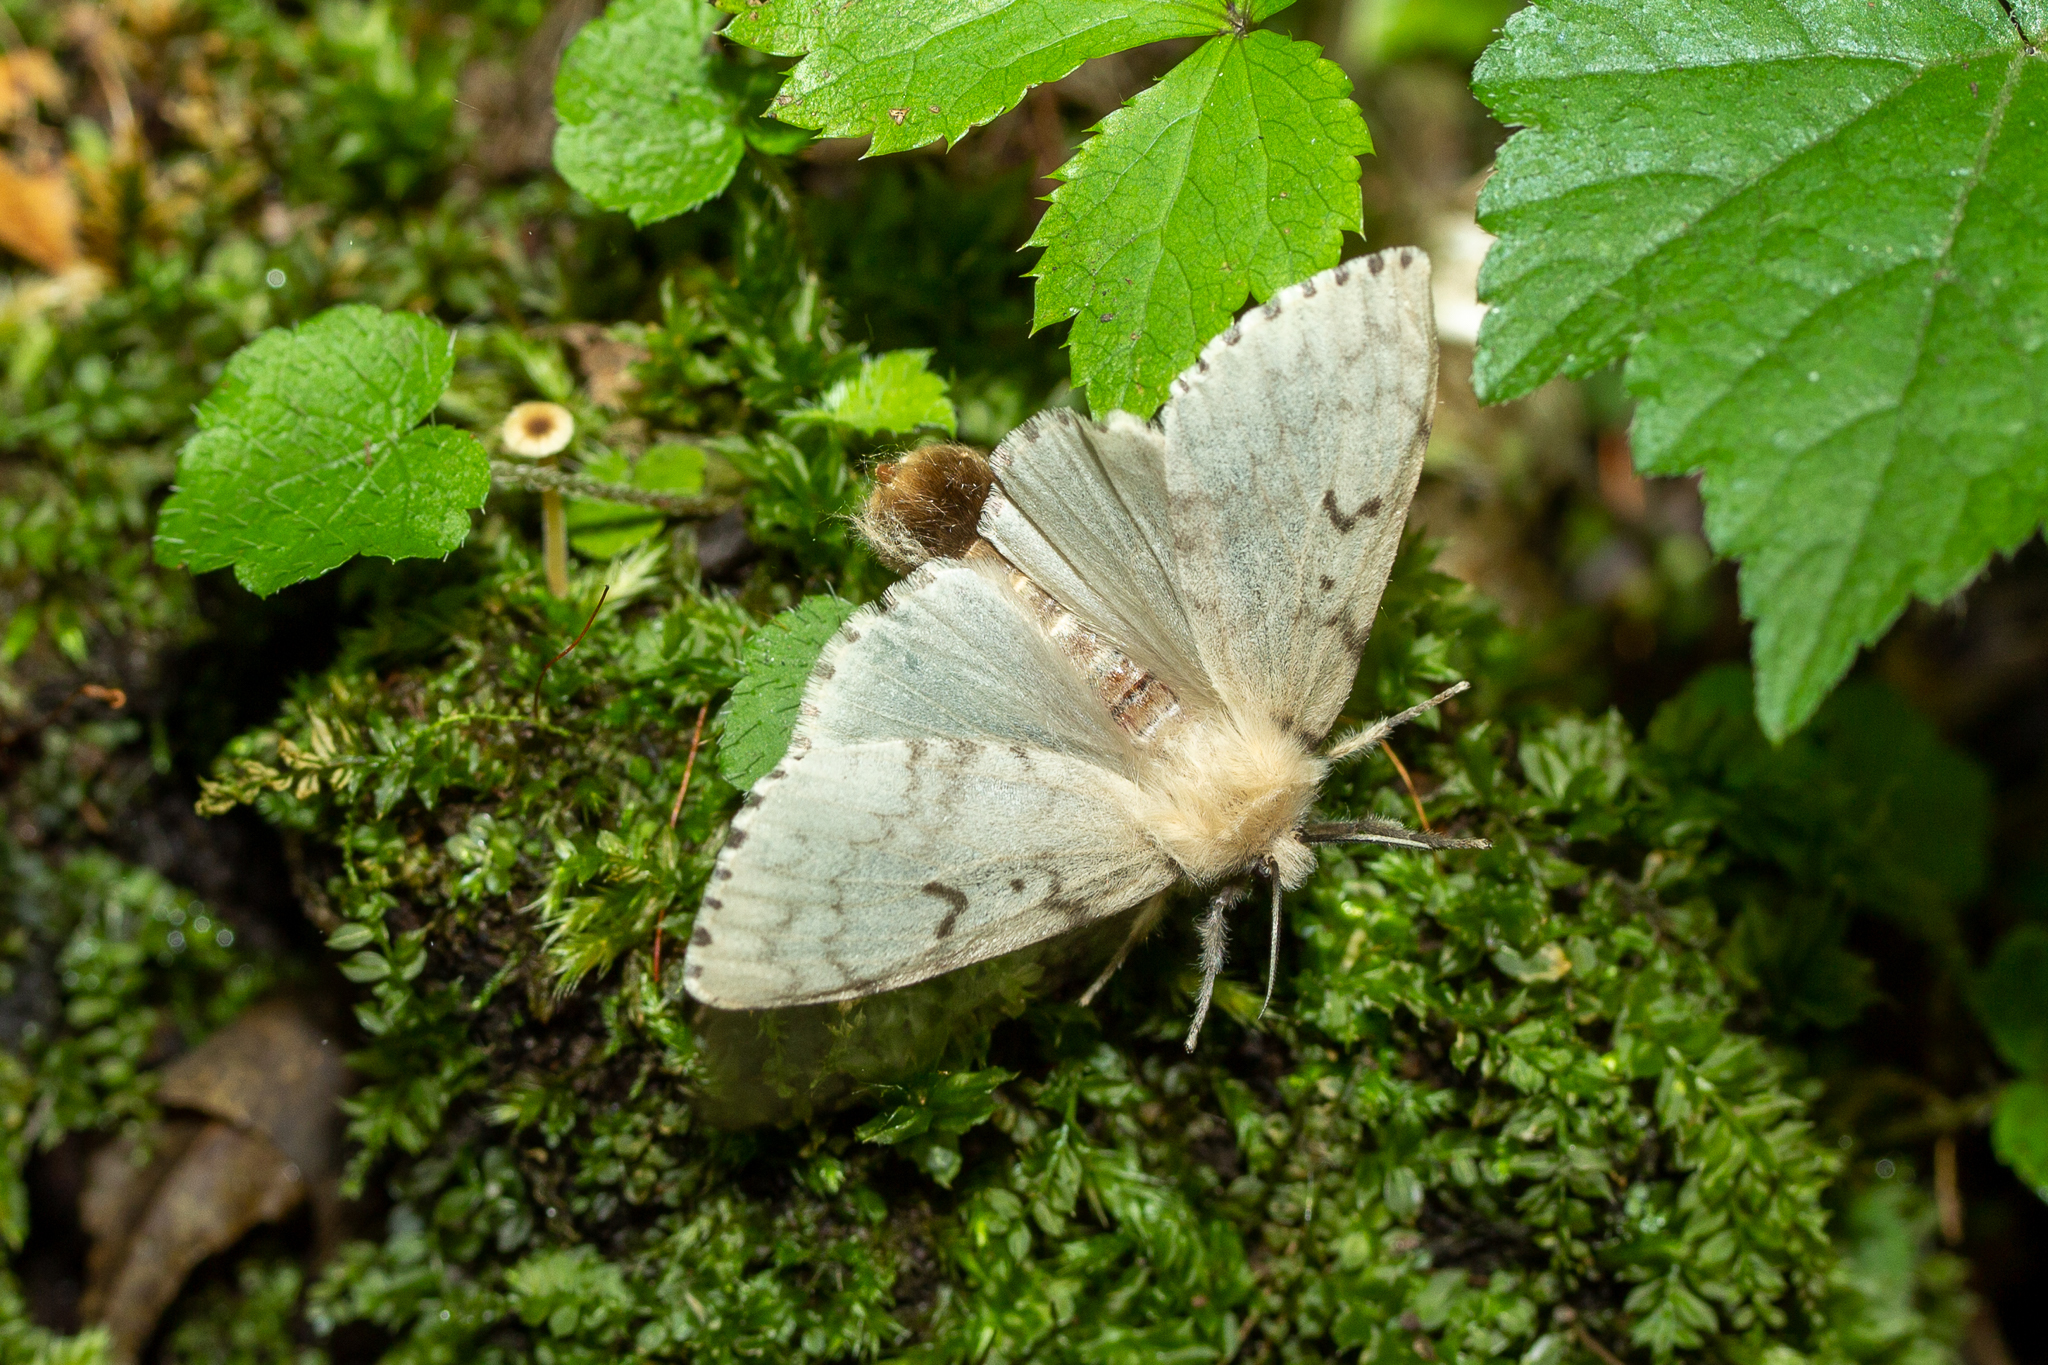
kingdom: Animalia
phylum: Arthropoda
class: Insecta
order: Lepidoptera
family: Erebidae
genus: Lymantria
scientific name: Lymantria dispar
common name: Gypsy moth
